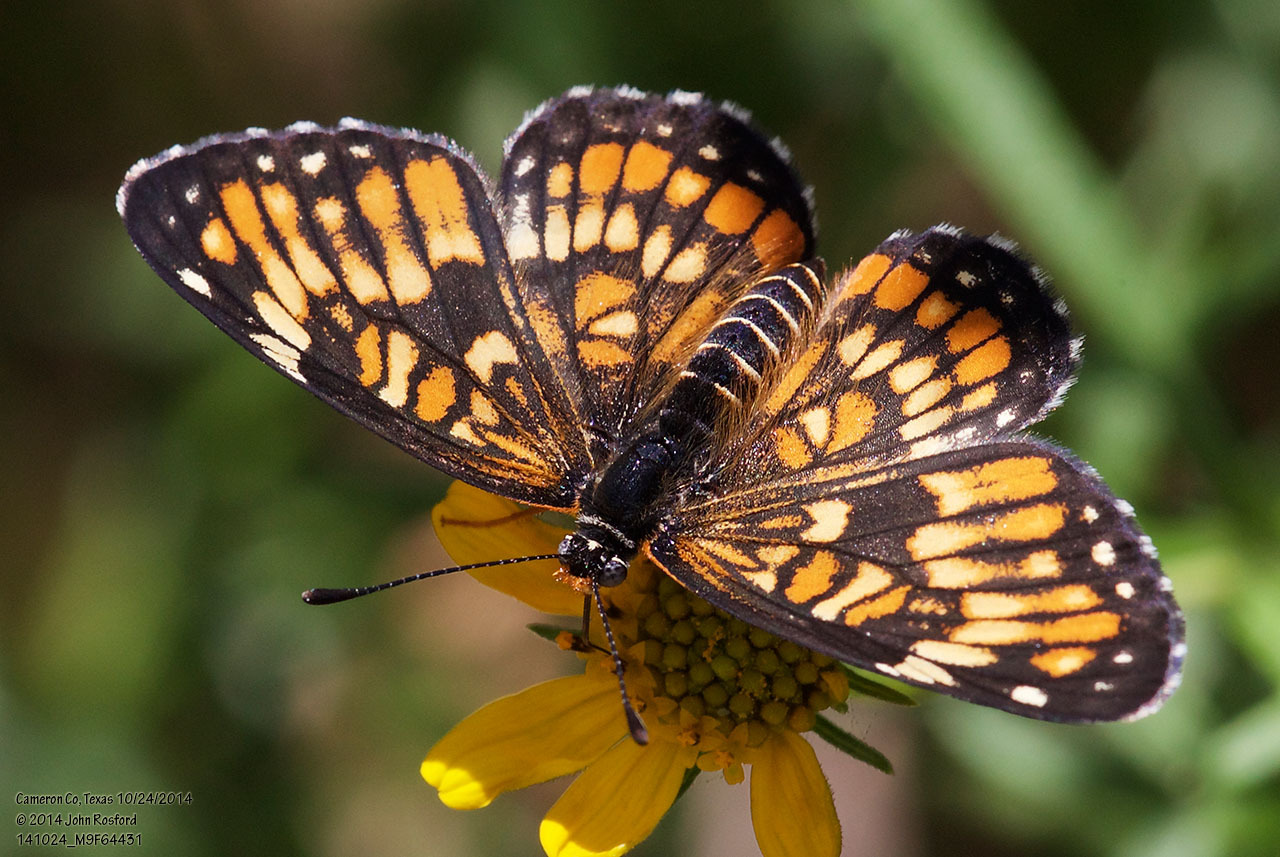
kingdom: Animalia
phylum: Arthropoda
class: Insecta
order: Lepidoptera
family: Nymphalidae
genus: Chlosyne
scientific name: Chlosyne definita
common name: Definite patch
